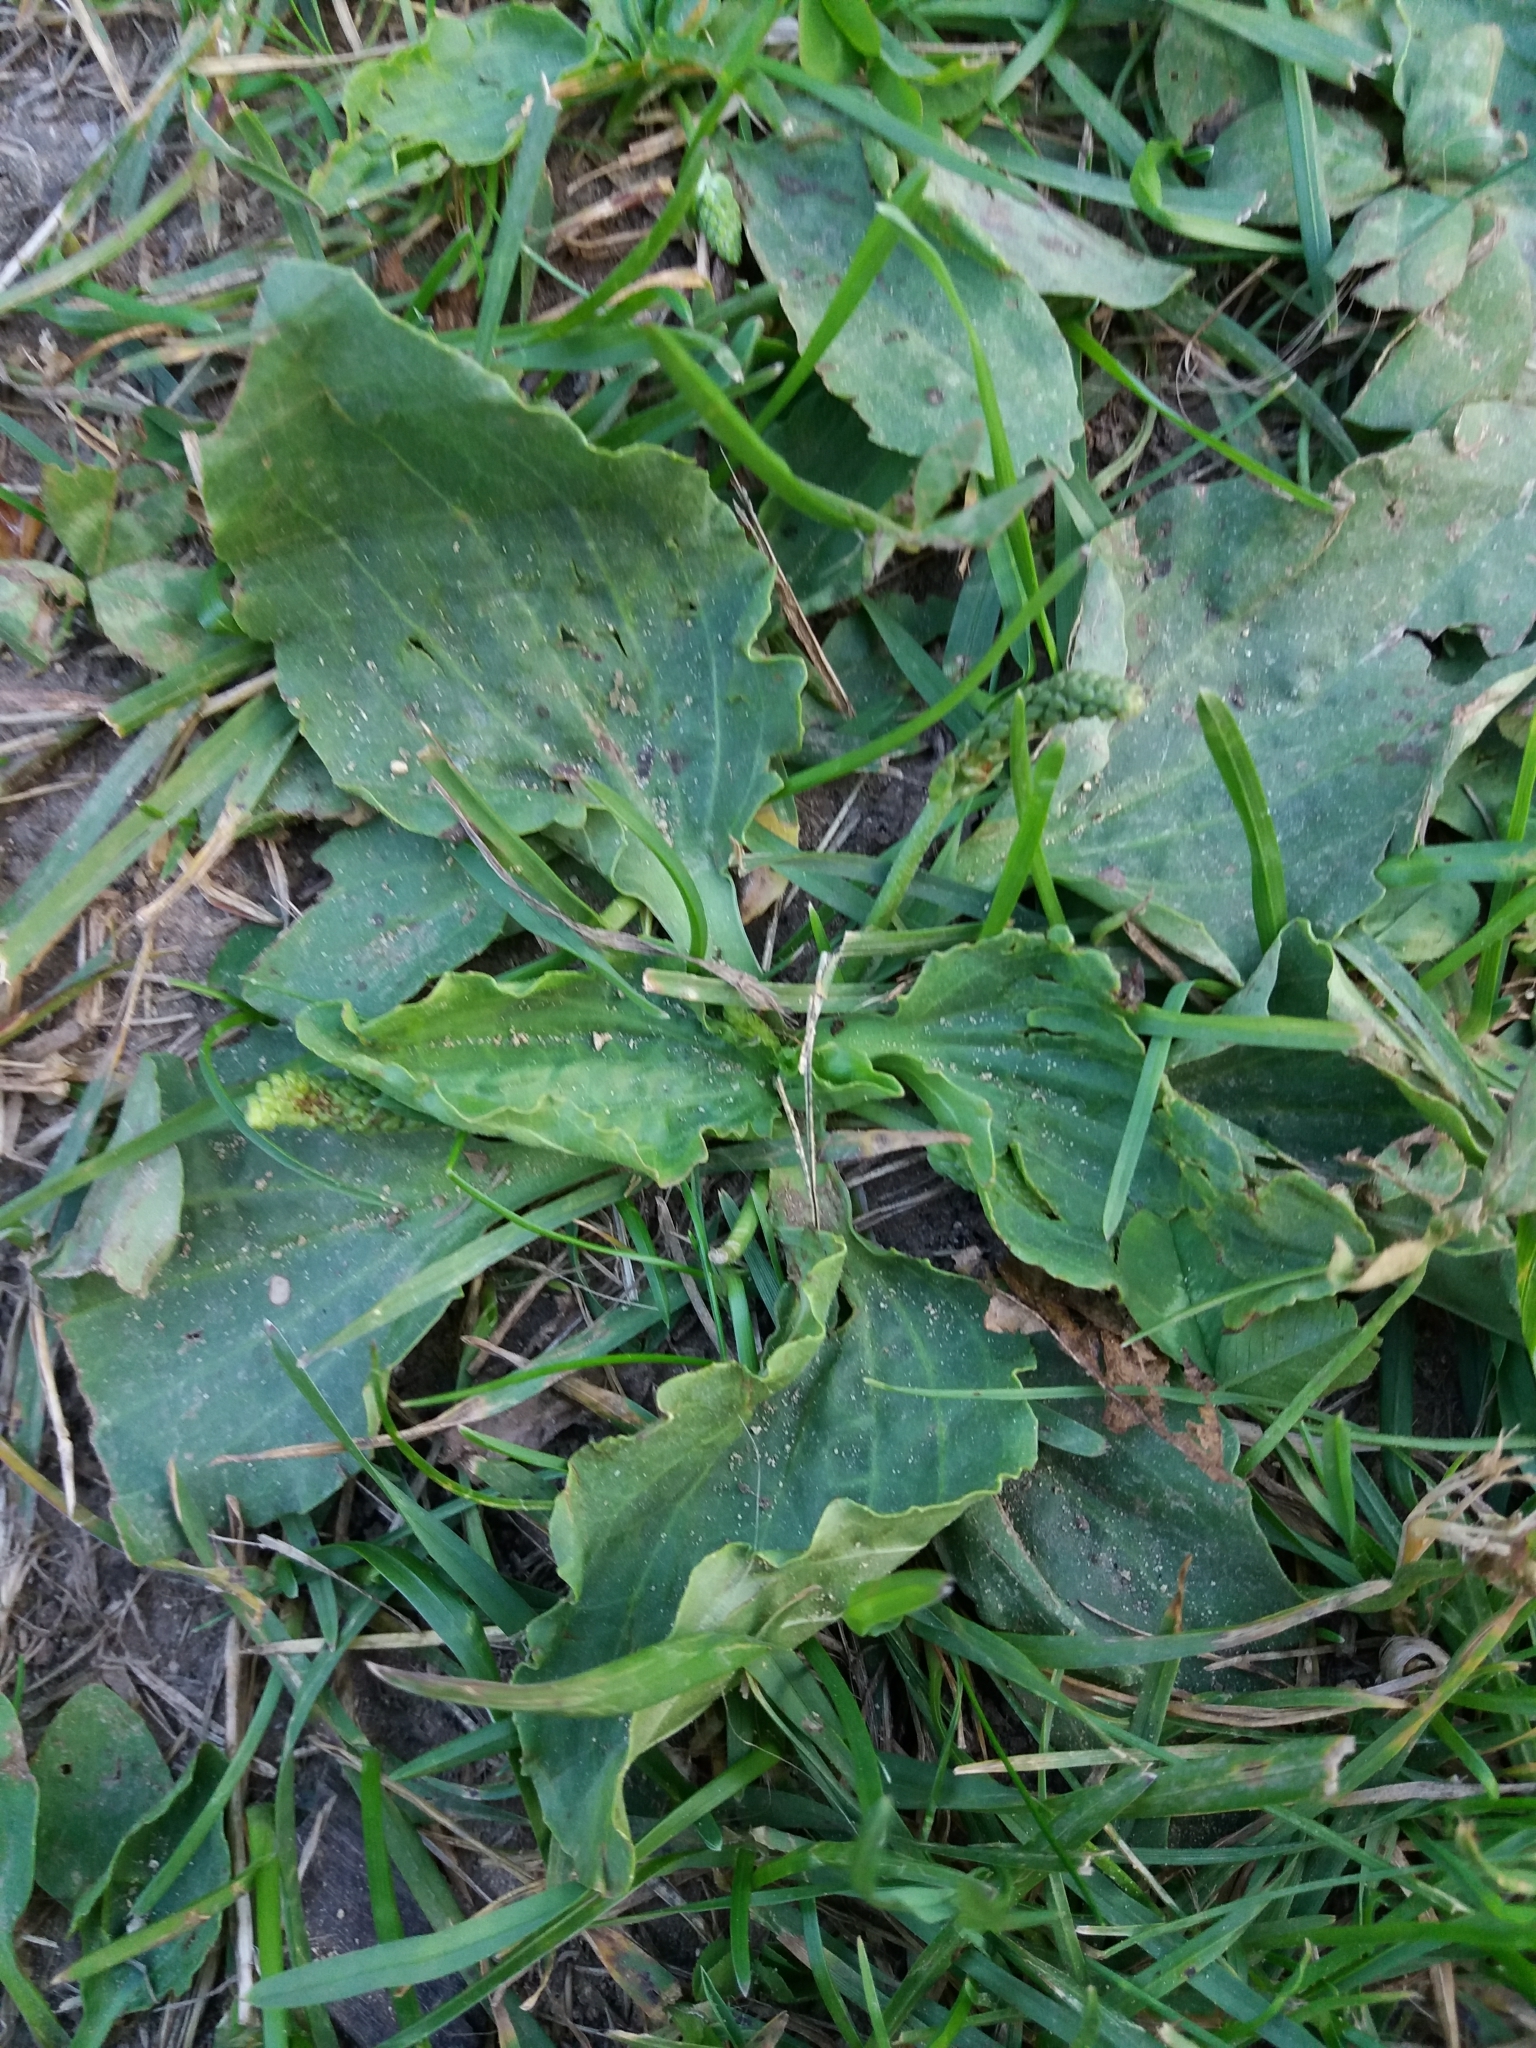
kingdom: Plantae
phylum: Tracheophyta
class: Magnoliopsida
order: Lamiales
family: Plantaginaceae
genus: Plantago
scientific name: Plantago major
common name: Common plantain
